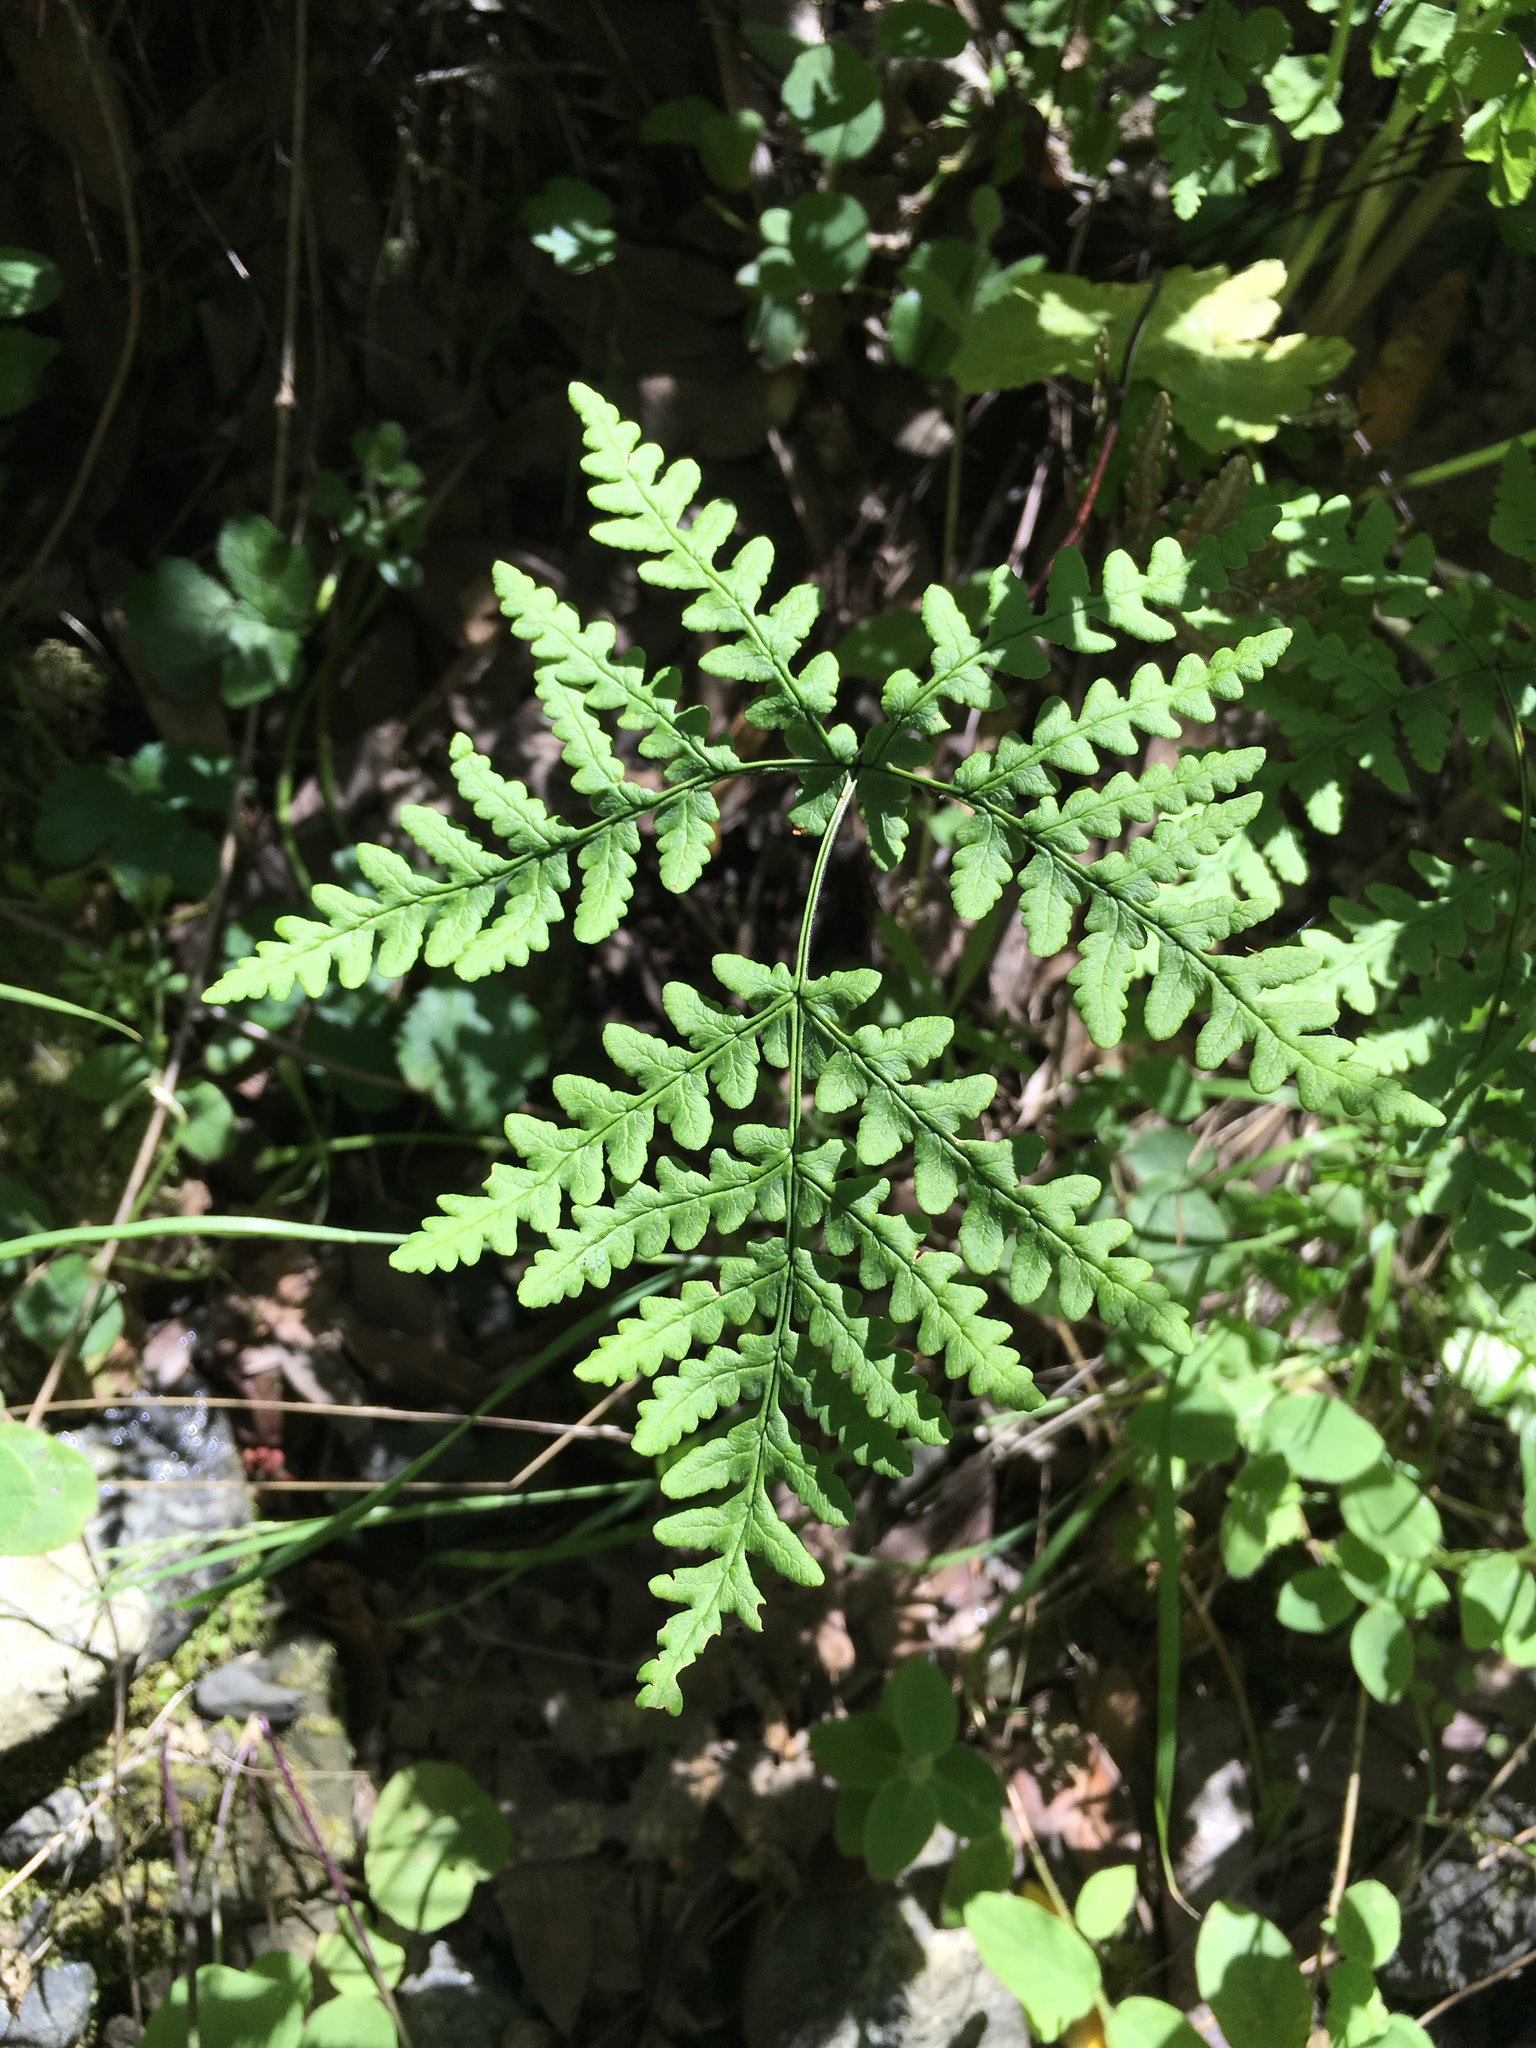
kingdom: Plantae
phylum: Tracheophyta
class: Polypodiopsida
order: Polypodiales
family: Pteridaceae
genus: Pentagramma
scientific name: Pentagramma triangularis
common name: Gold fern
